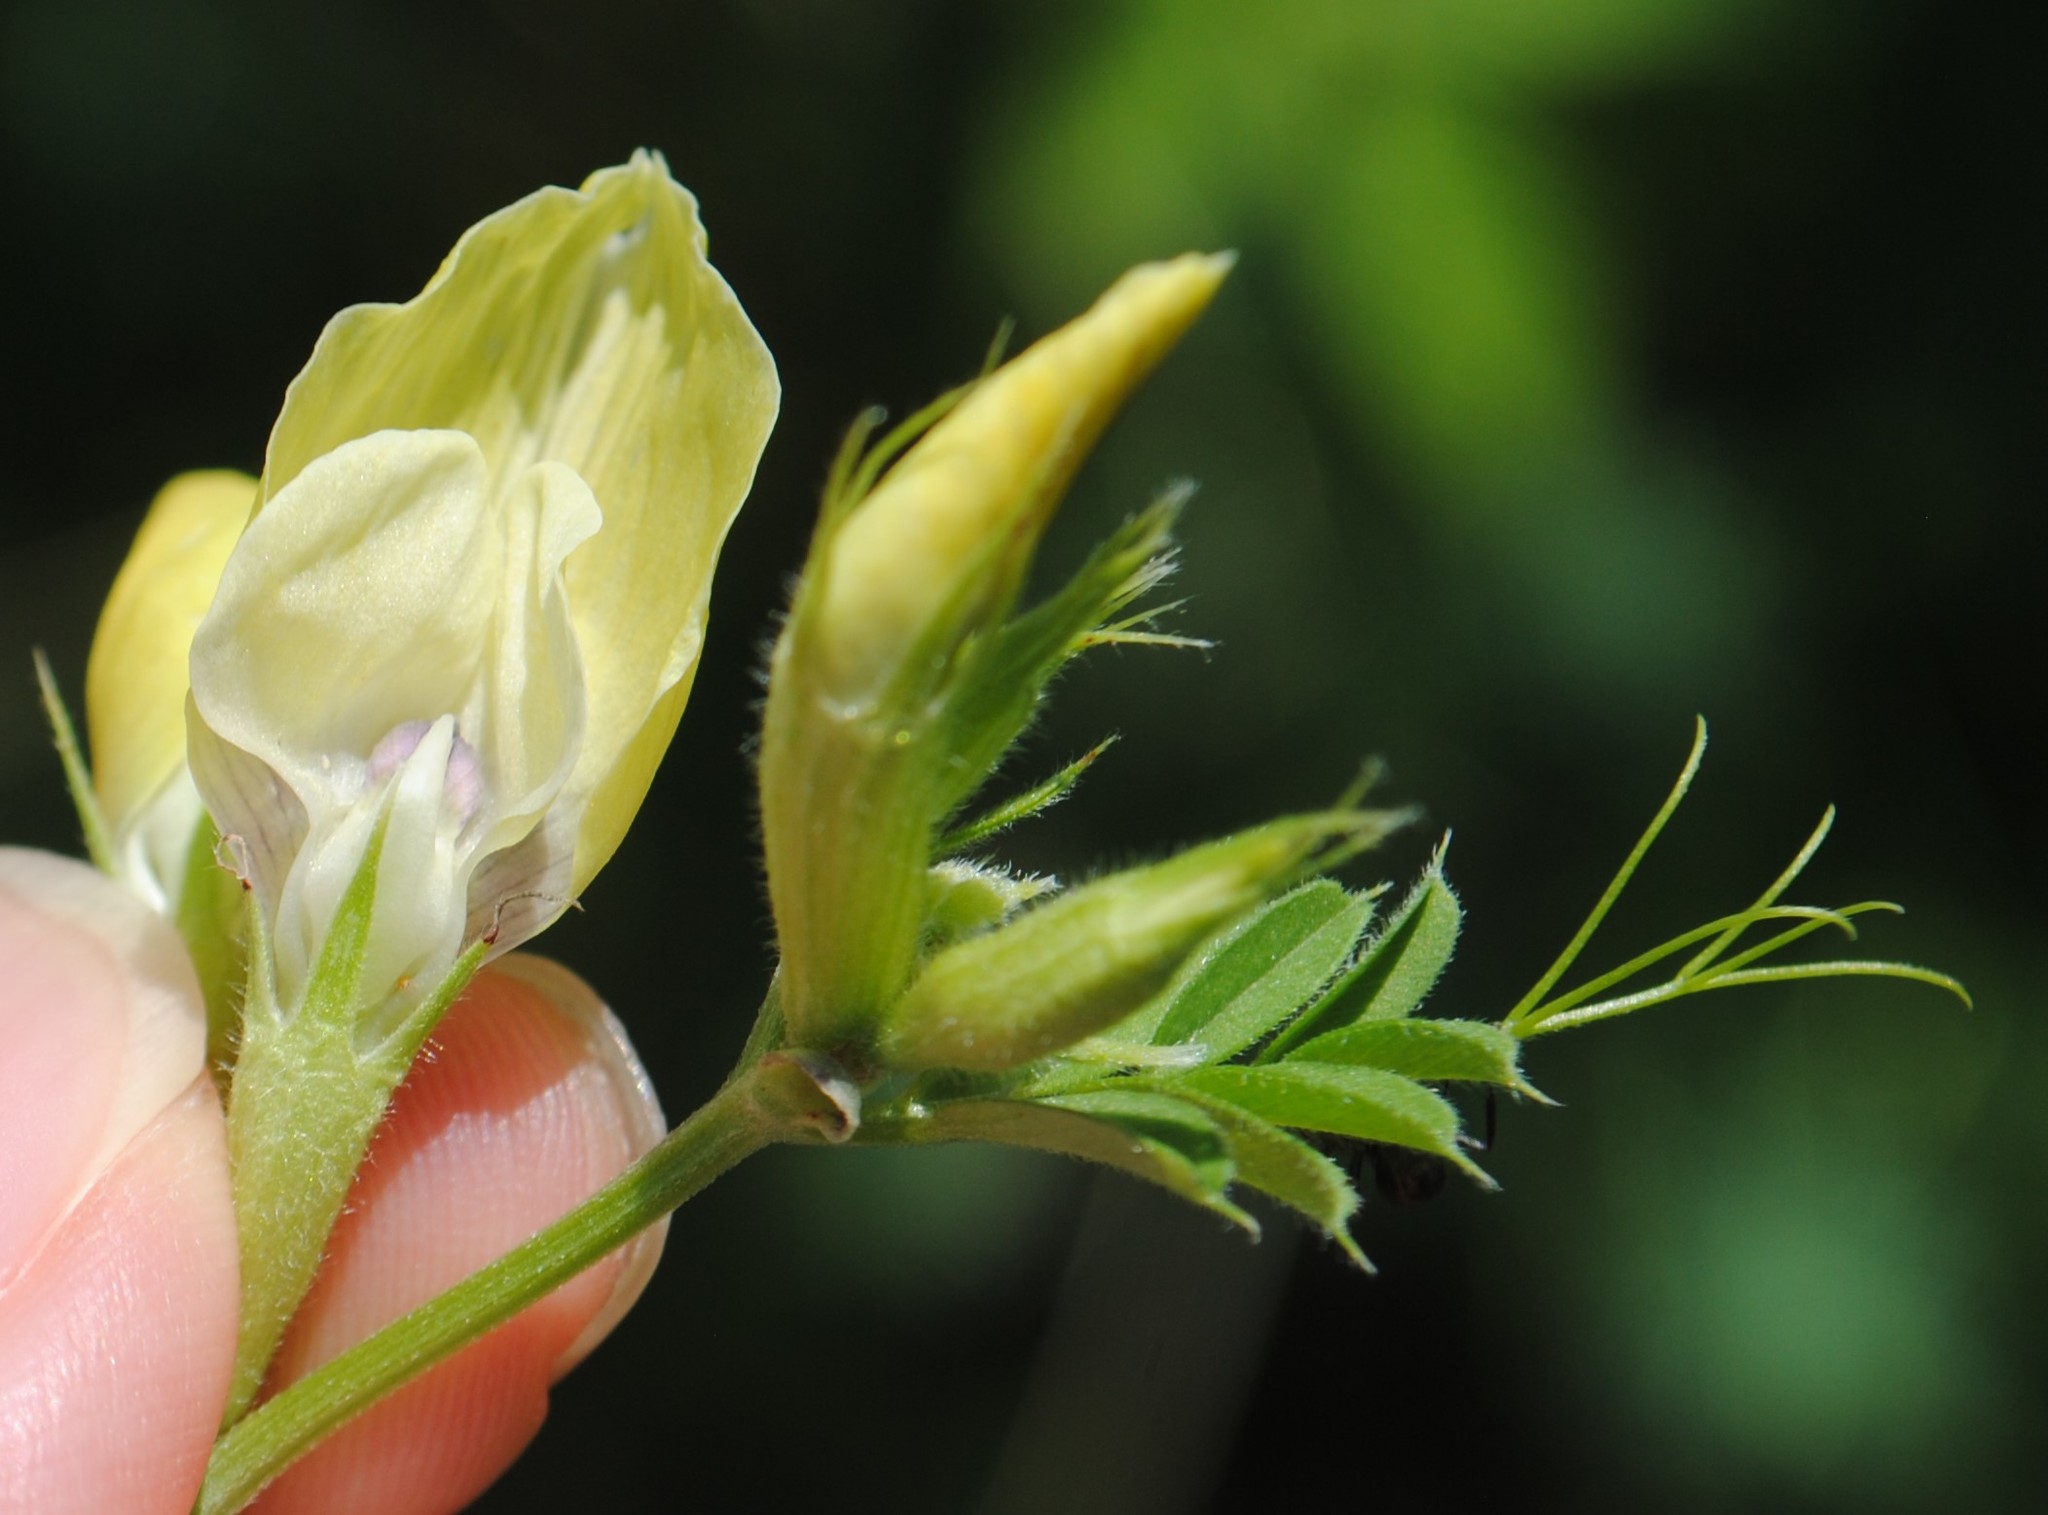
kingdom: Plantae
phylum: Tracheophyta
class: Magnoliopsida
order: Fabales
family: Fabaceae
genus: Vicia
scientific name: Vicia grandiflora
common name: Large yellow vetch
